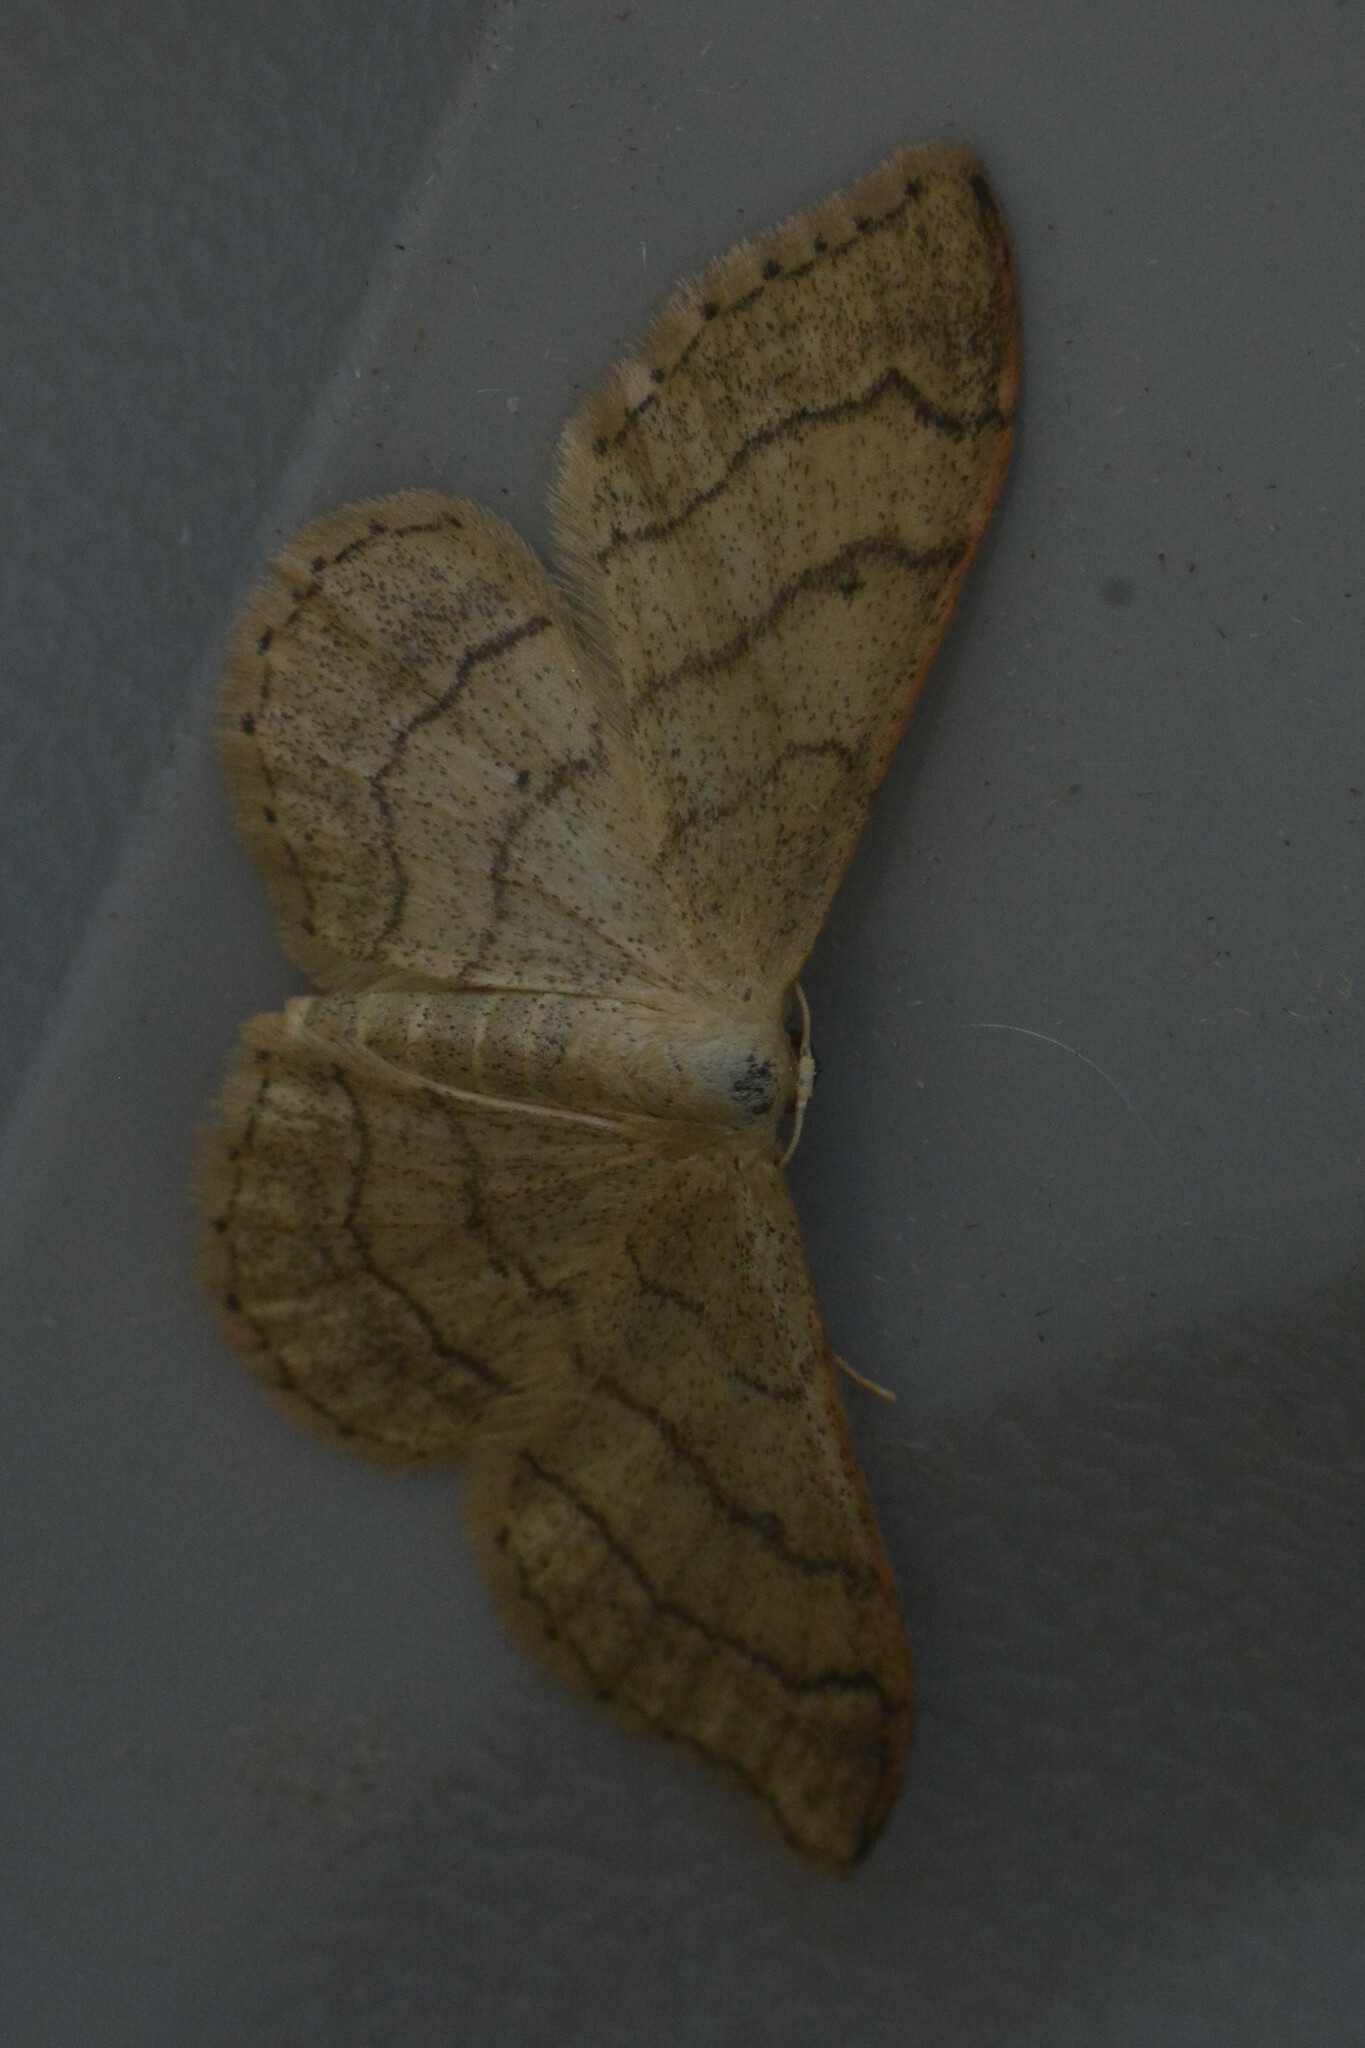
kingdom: Animalia
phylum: Arthropoda
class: Insecta
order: Lepidoptera
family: Geometridae
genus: Idaea
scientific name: Idaea aversata
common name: Riband wave
